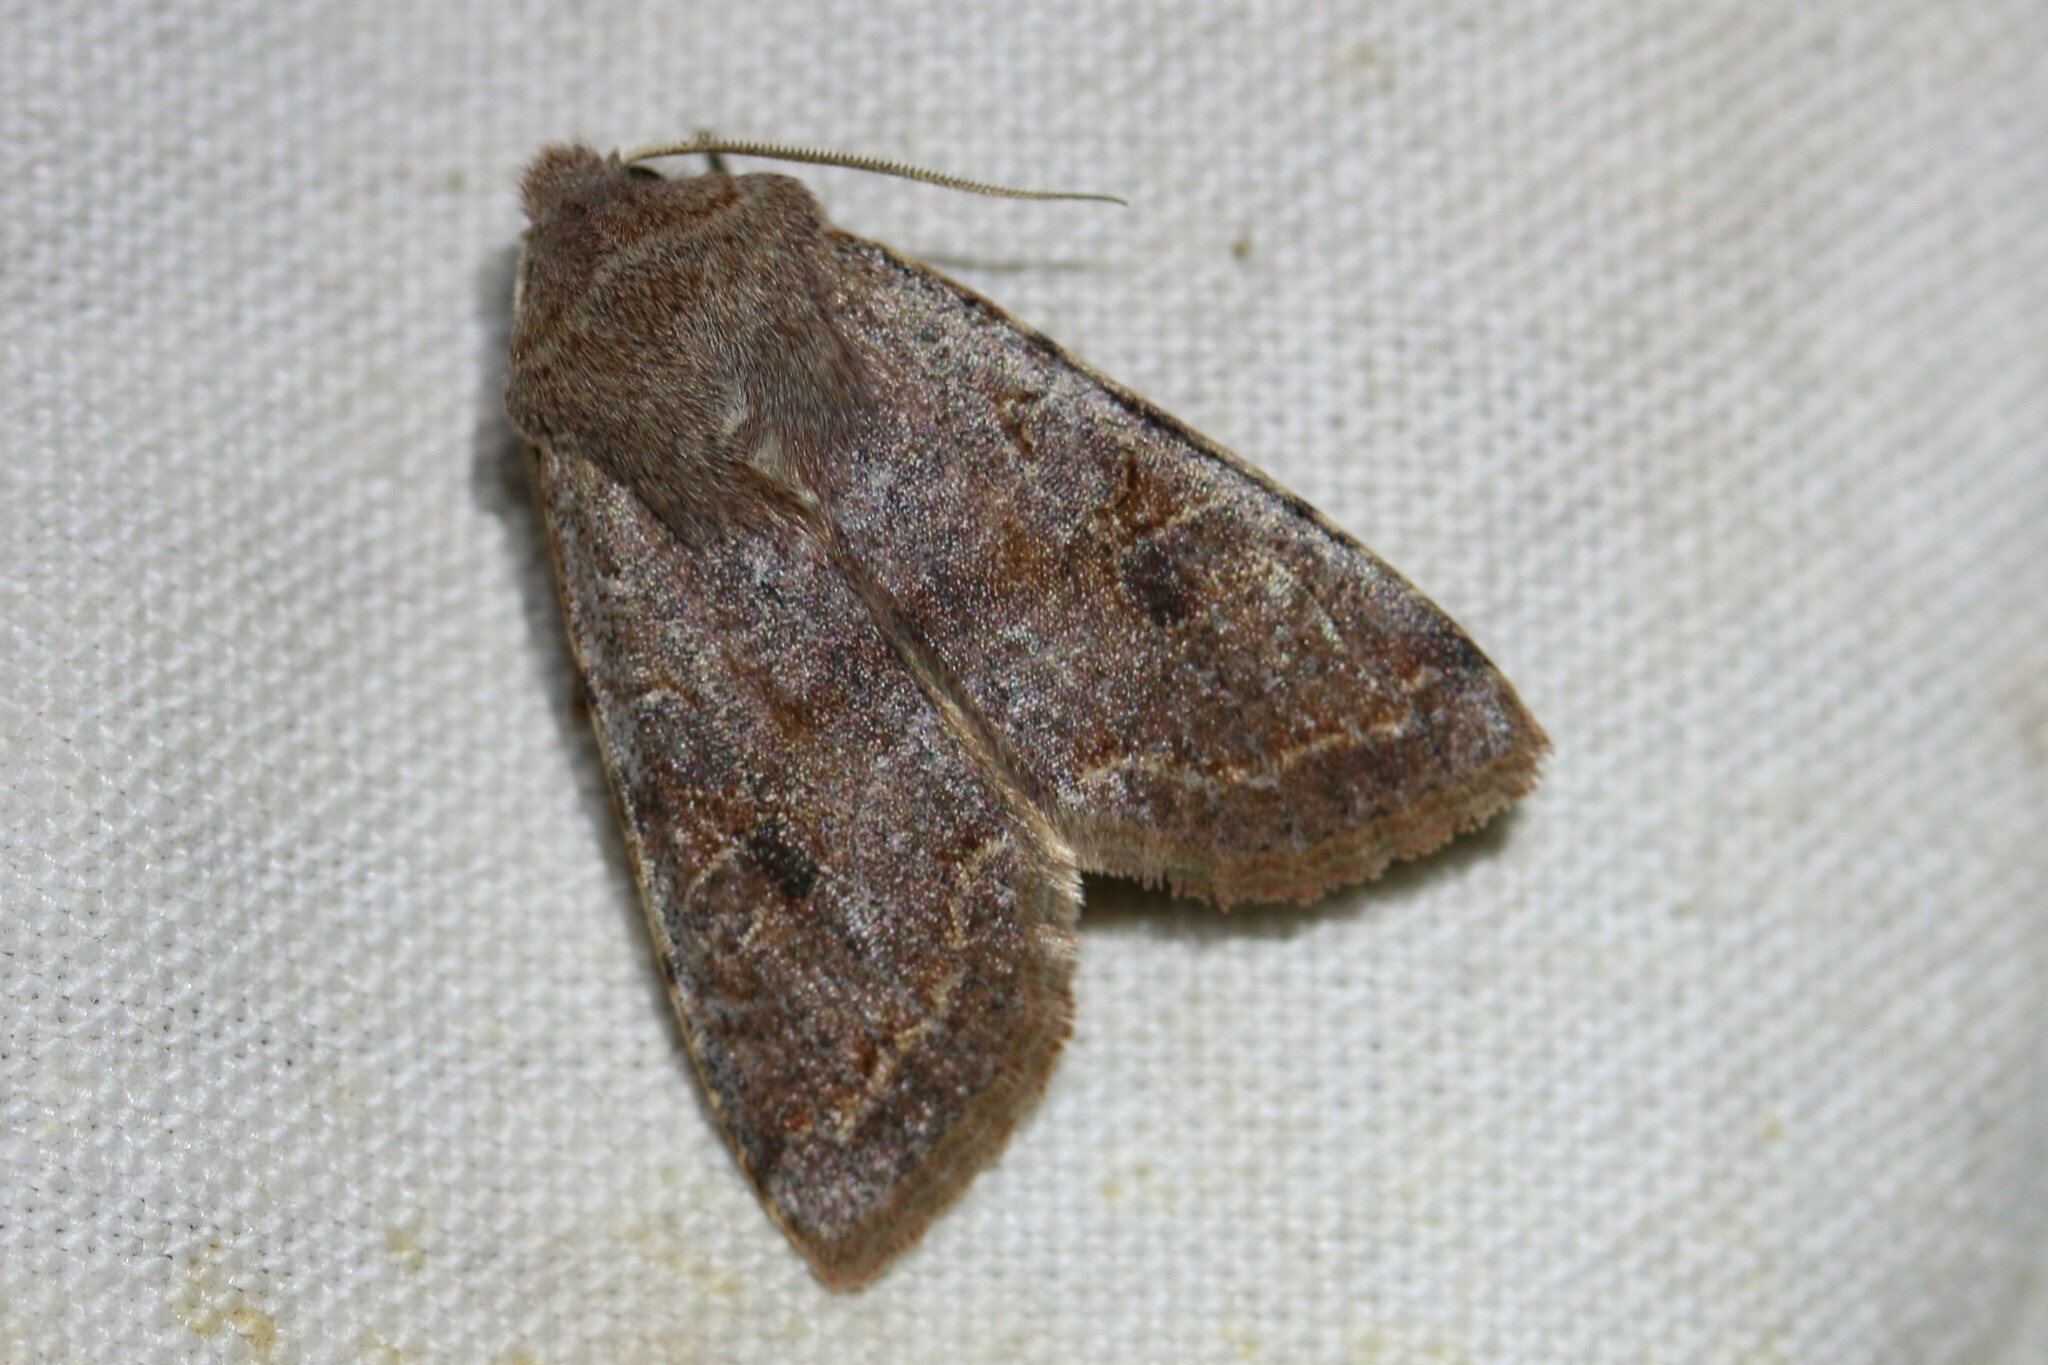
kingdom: Animalia
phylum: Arthropoda
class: Insecta
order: Lepidoptera
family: Noctuidae
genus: Orthosia
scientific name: Orthosia incerta
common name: Clouded drab
